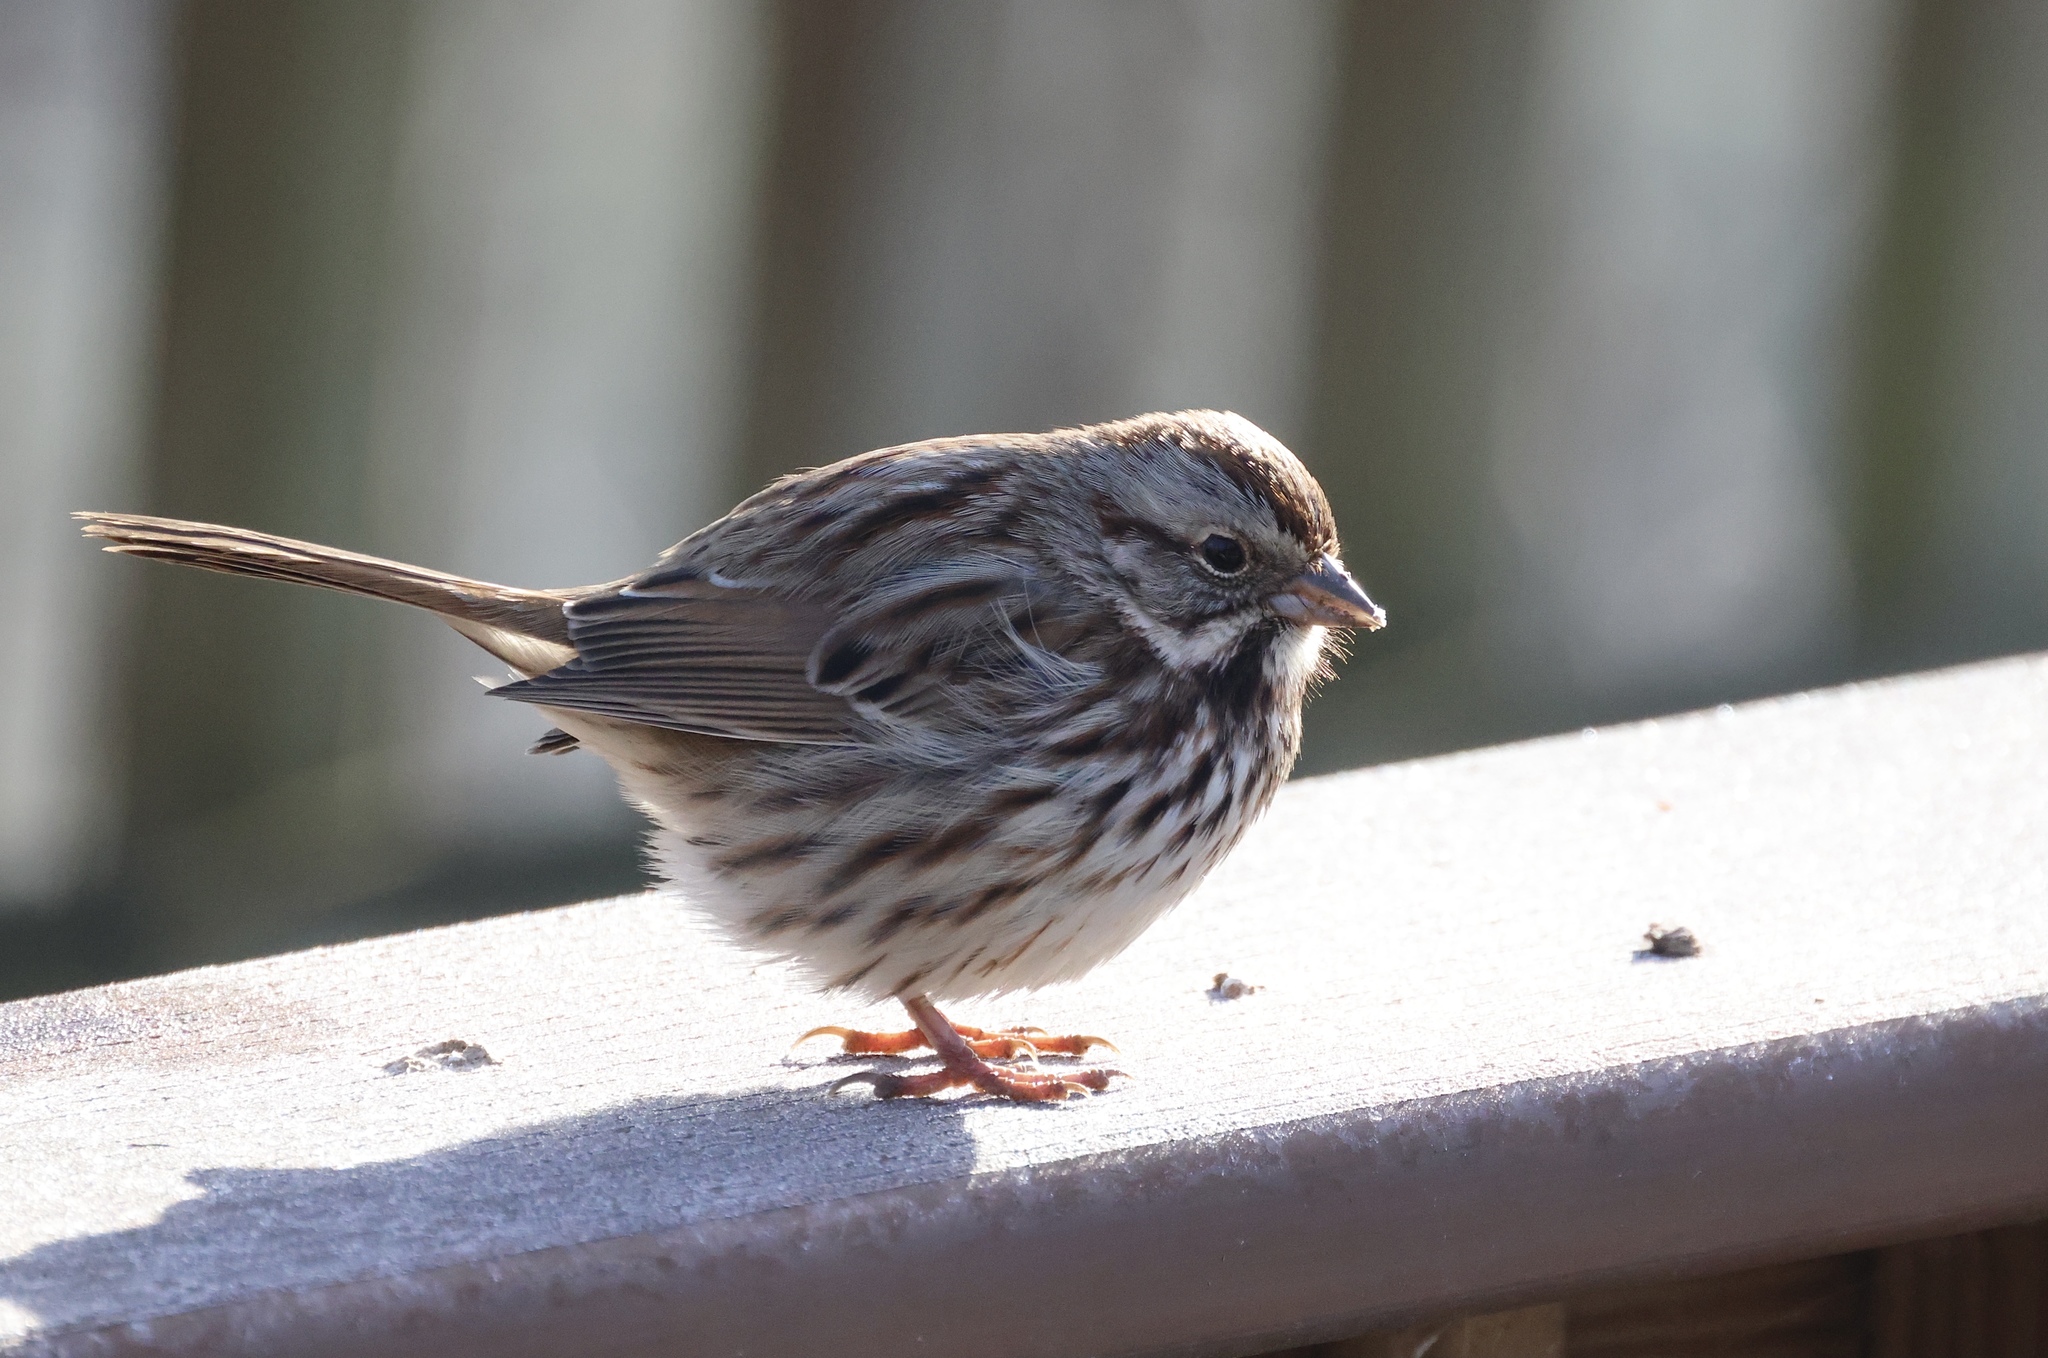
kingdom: Animalia
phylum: Chordata
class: Aves
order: Passeriformes
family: Passerellidae
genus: Melospiza
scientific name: Melospiza melodia
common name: Song sparrow
